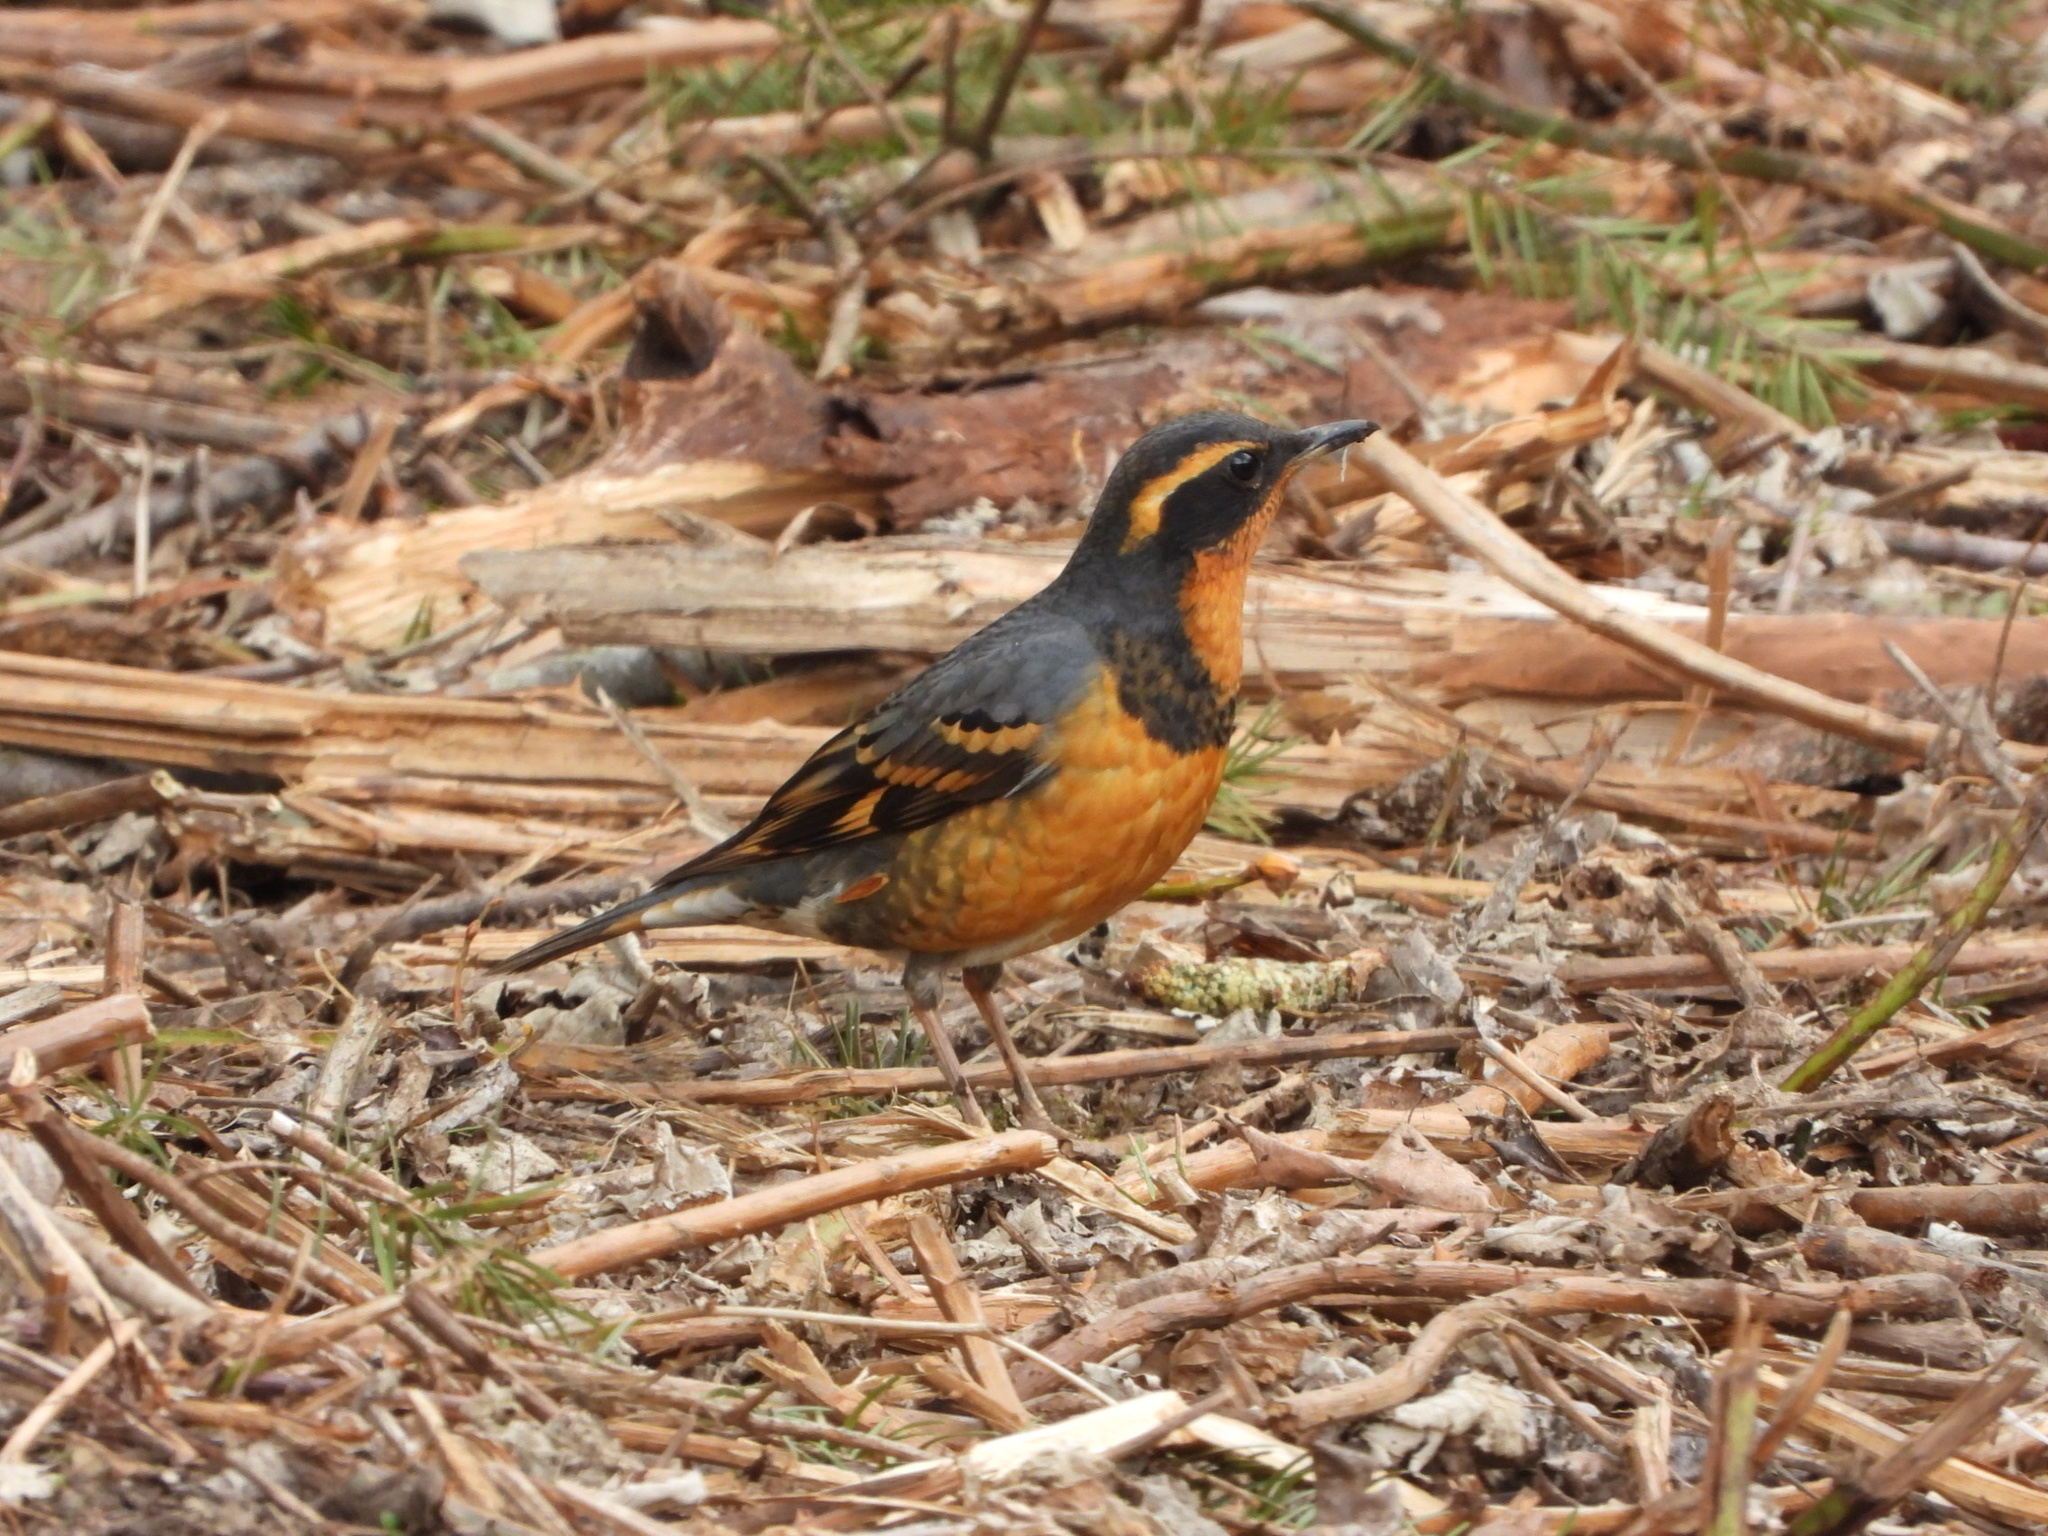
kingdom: Animalia
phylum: Chordata
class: Aves
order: Passeriformes
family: Turdidae
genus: Ixoreus
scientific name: Ixoreus naevius
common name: Varied thrush
